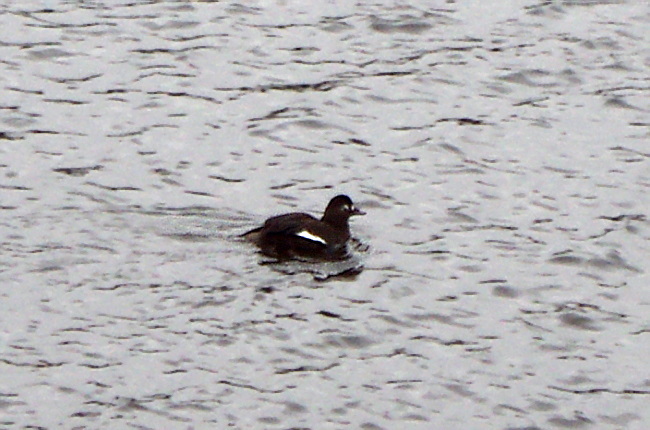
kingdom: Animalia
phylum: Chordata
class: Aves
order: Anseriformes
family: Anatidae
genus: Melanitta
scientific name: Melanitta fusca
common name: Velvet scoter
